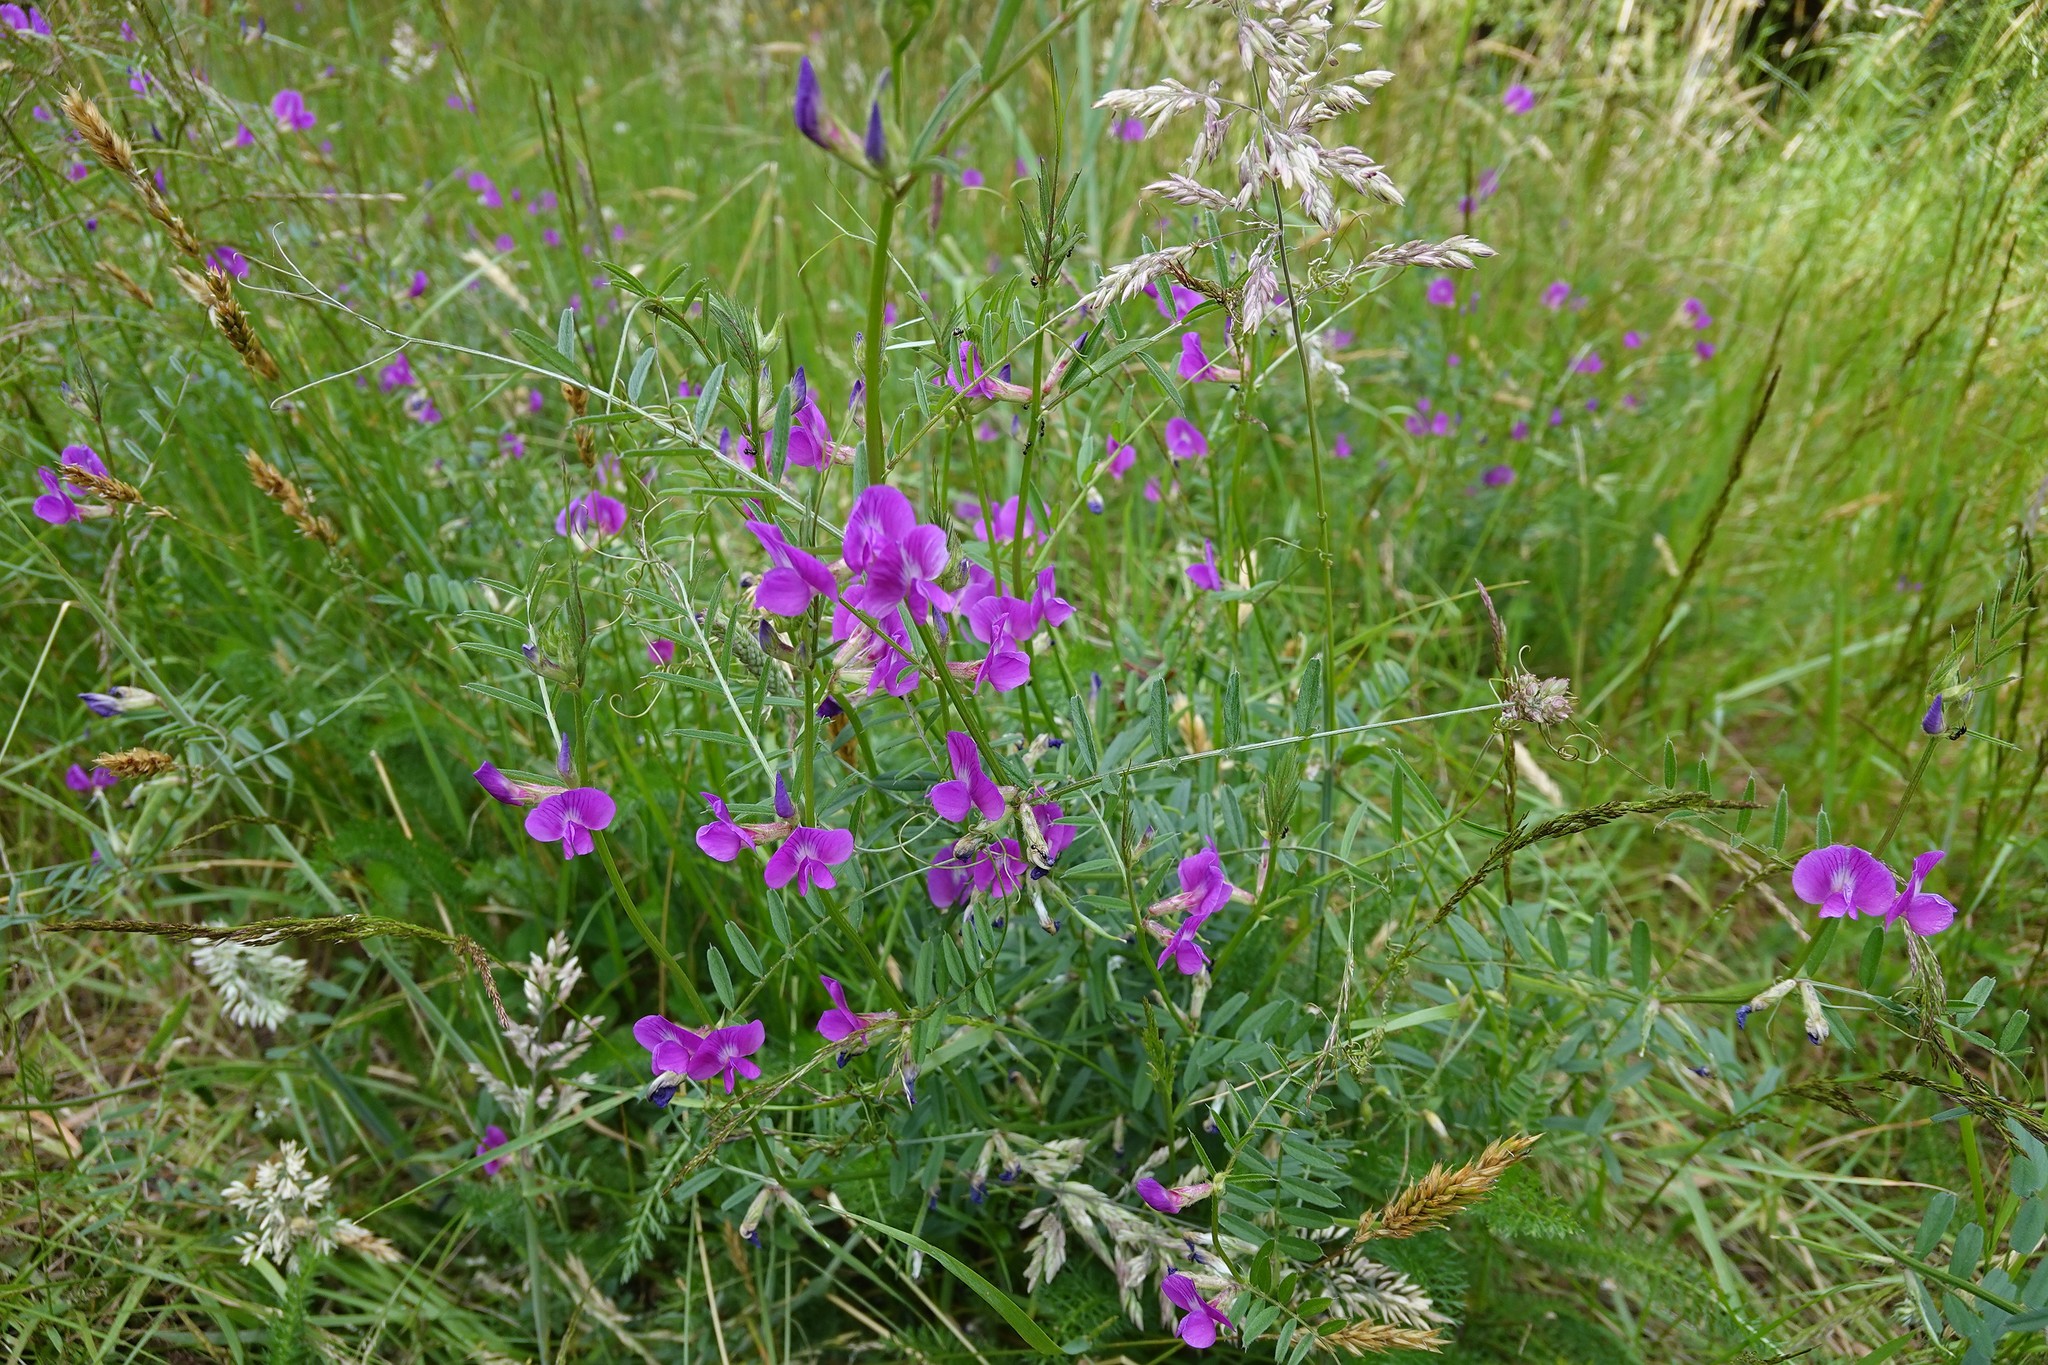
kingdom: Plantae
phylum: Tracheophyta
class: Magnoliopsida
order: Fabales
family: Fabaceae
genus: Vicia
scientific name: Vicia sativa
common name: Garden vetch
